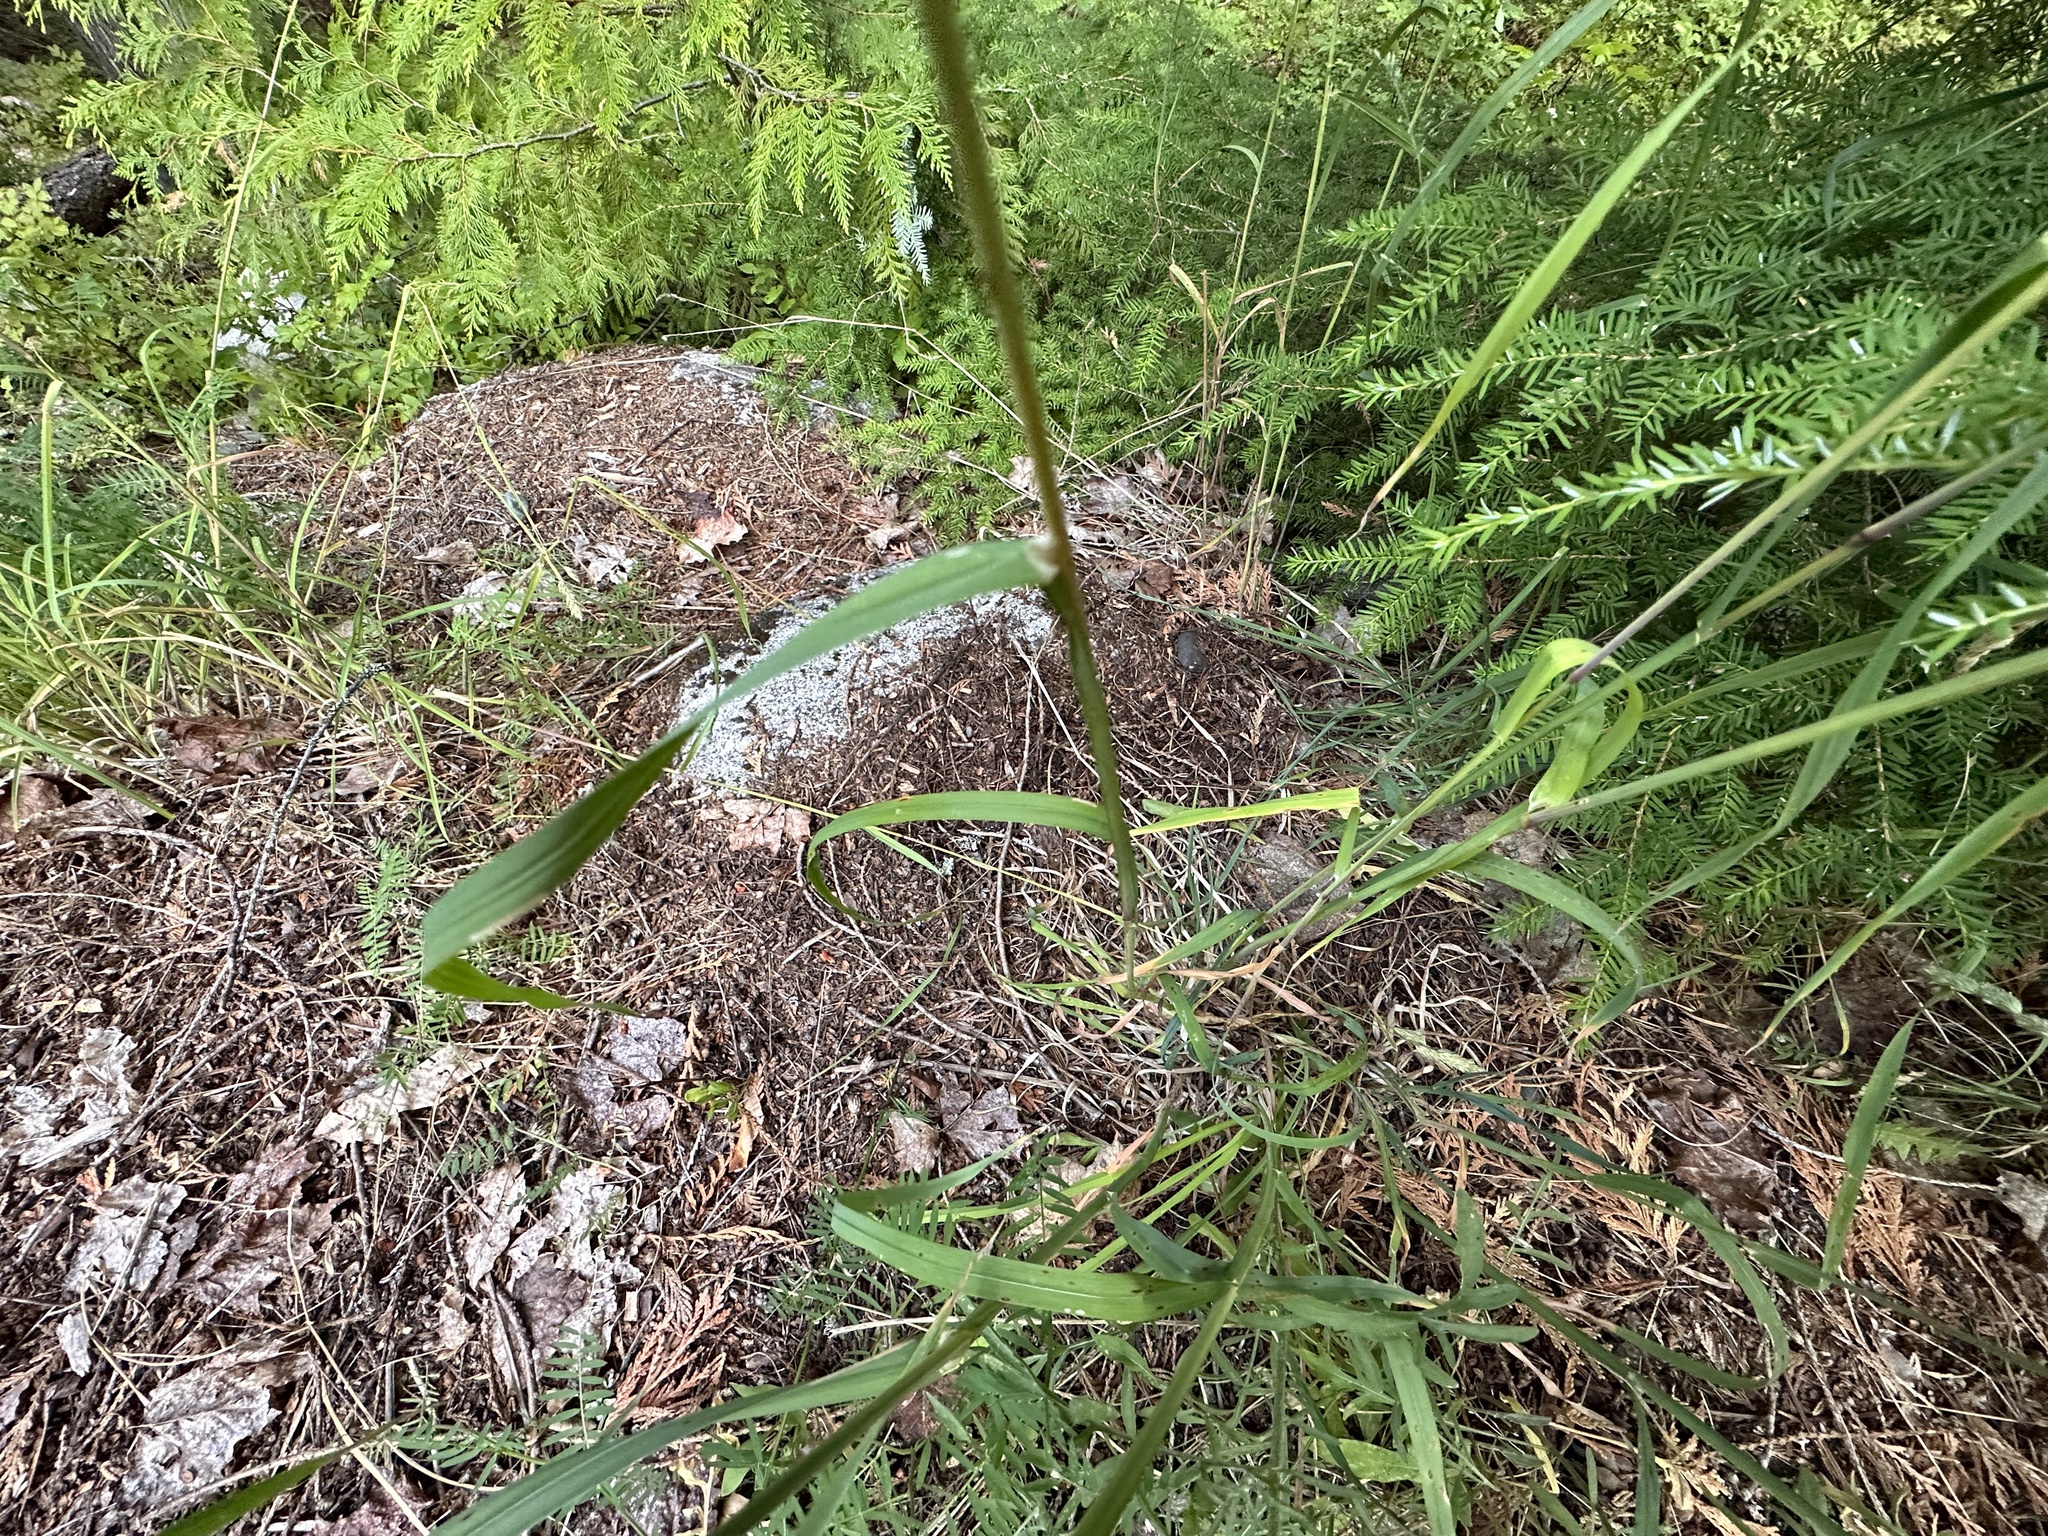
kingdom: Plantae
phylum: Tracheophyta
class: Liliopsida
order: Poales
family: Poaceae
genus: Dactylis
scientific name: Dactylis glomerata
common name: Orchardgrass
